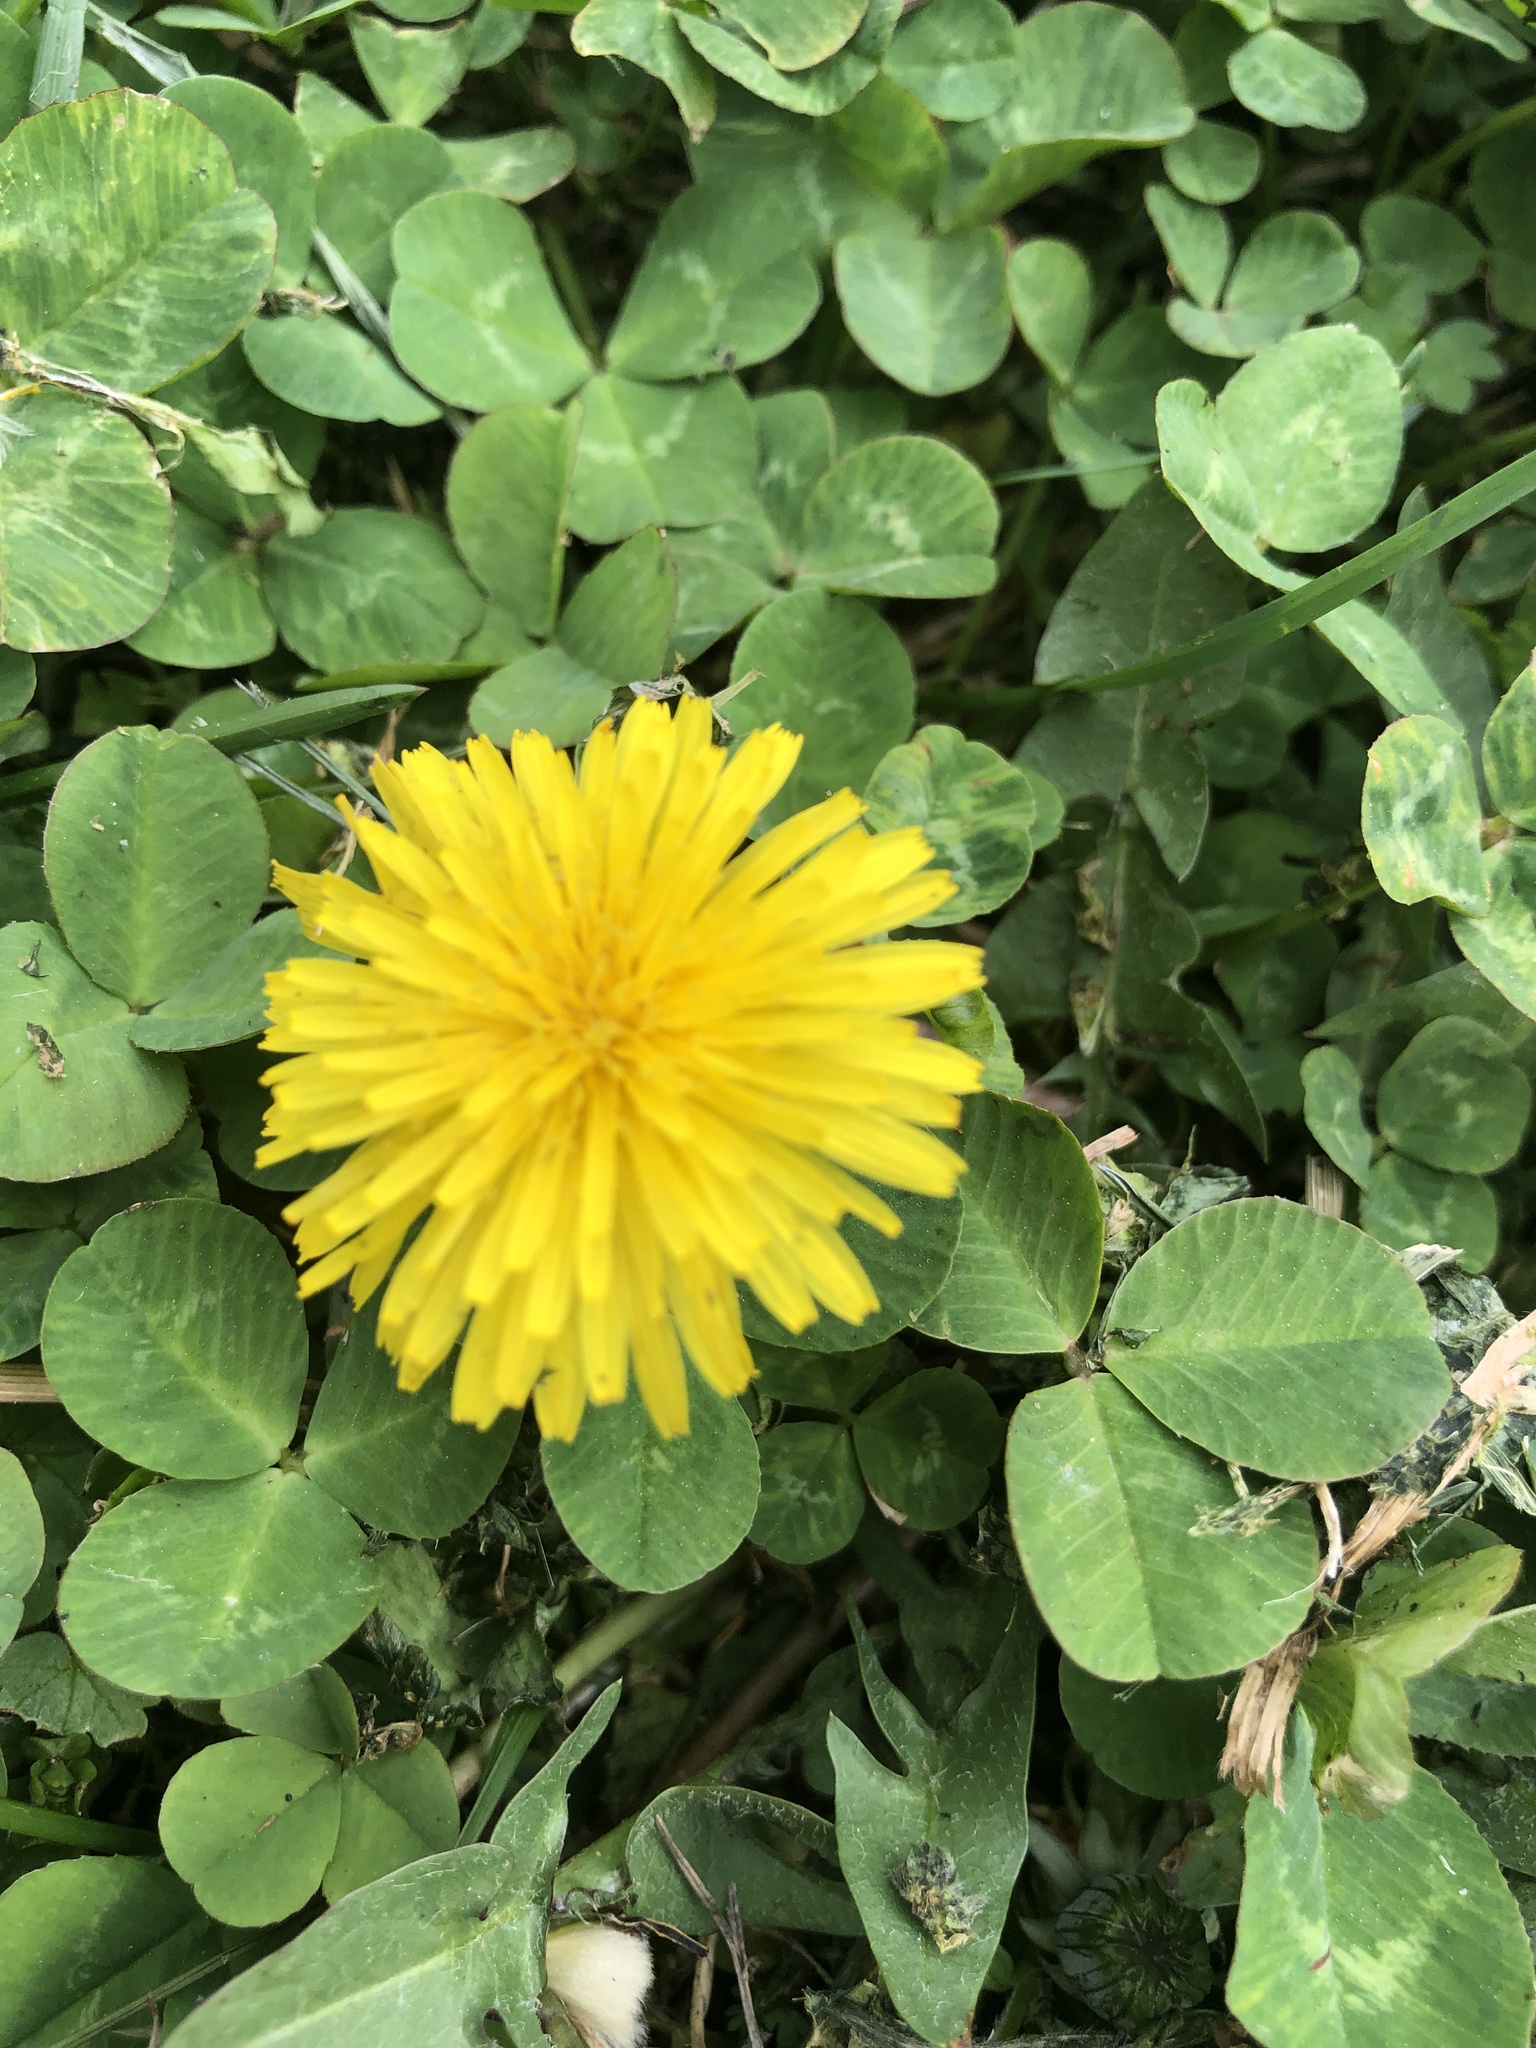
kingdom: Plantae
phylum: Tracheophyta
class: Magnoliopsida
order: Asterales
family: Asteraceae
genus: Taraxacum
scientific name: Taraxacum
